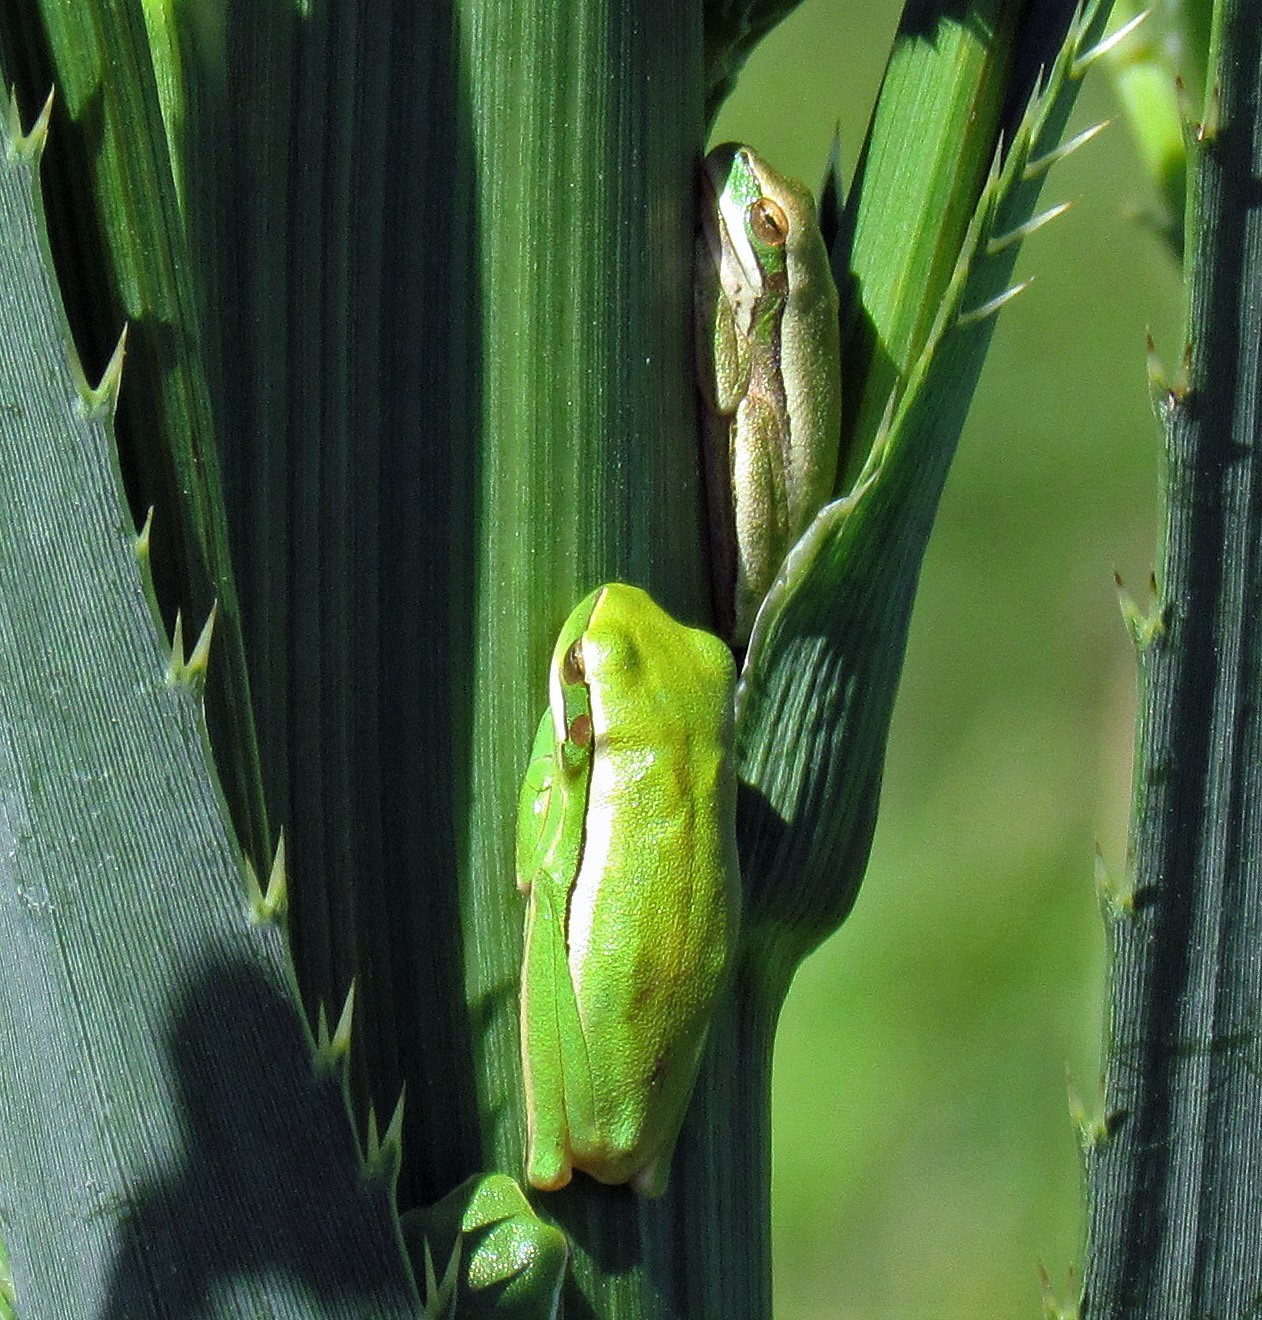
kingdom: Animalia
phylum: Chordata
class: Amphibia
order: Anura
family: Hylidae
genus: Boana
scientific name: Boana pulchella
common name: Montevideo treefrog
